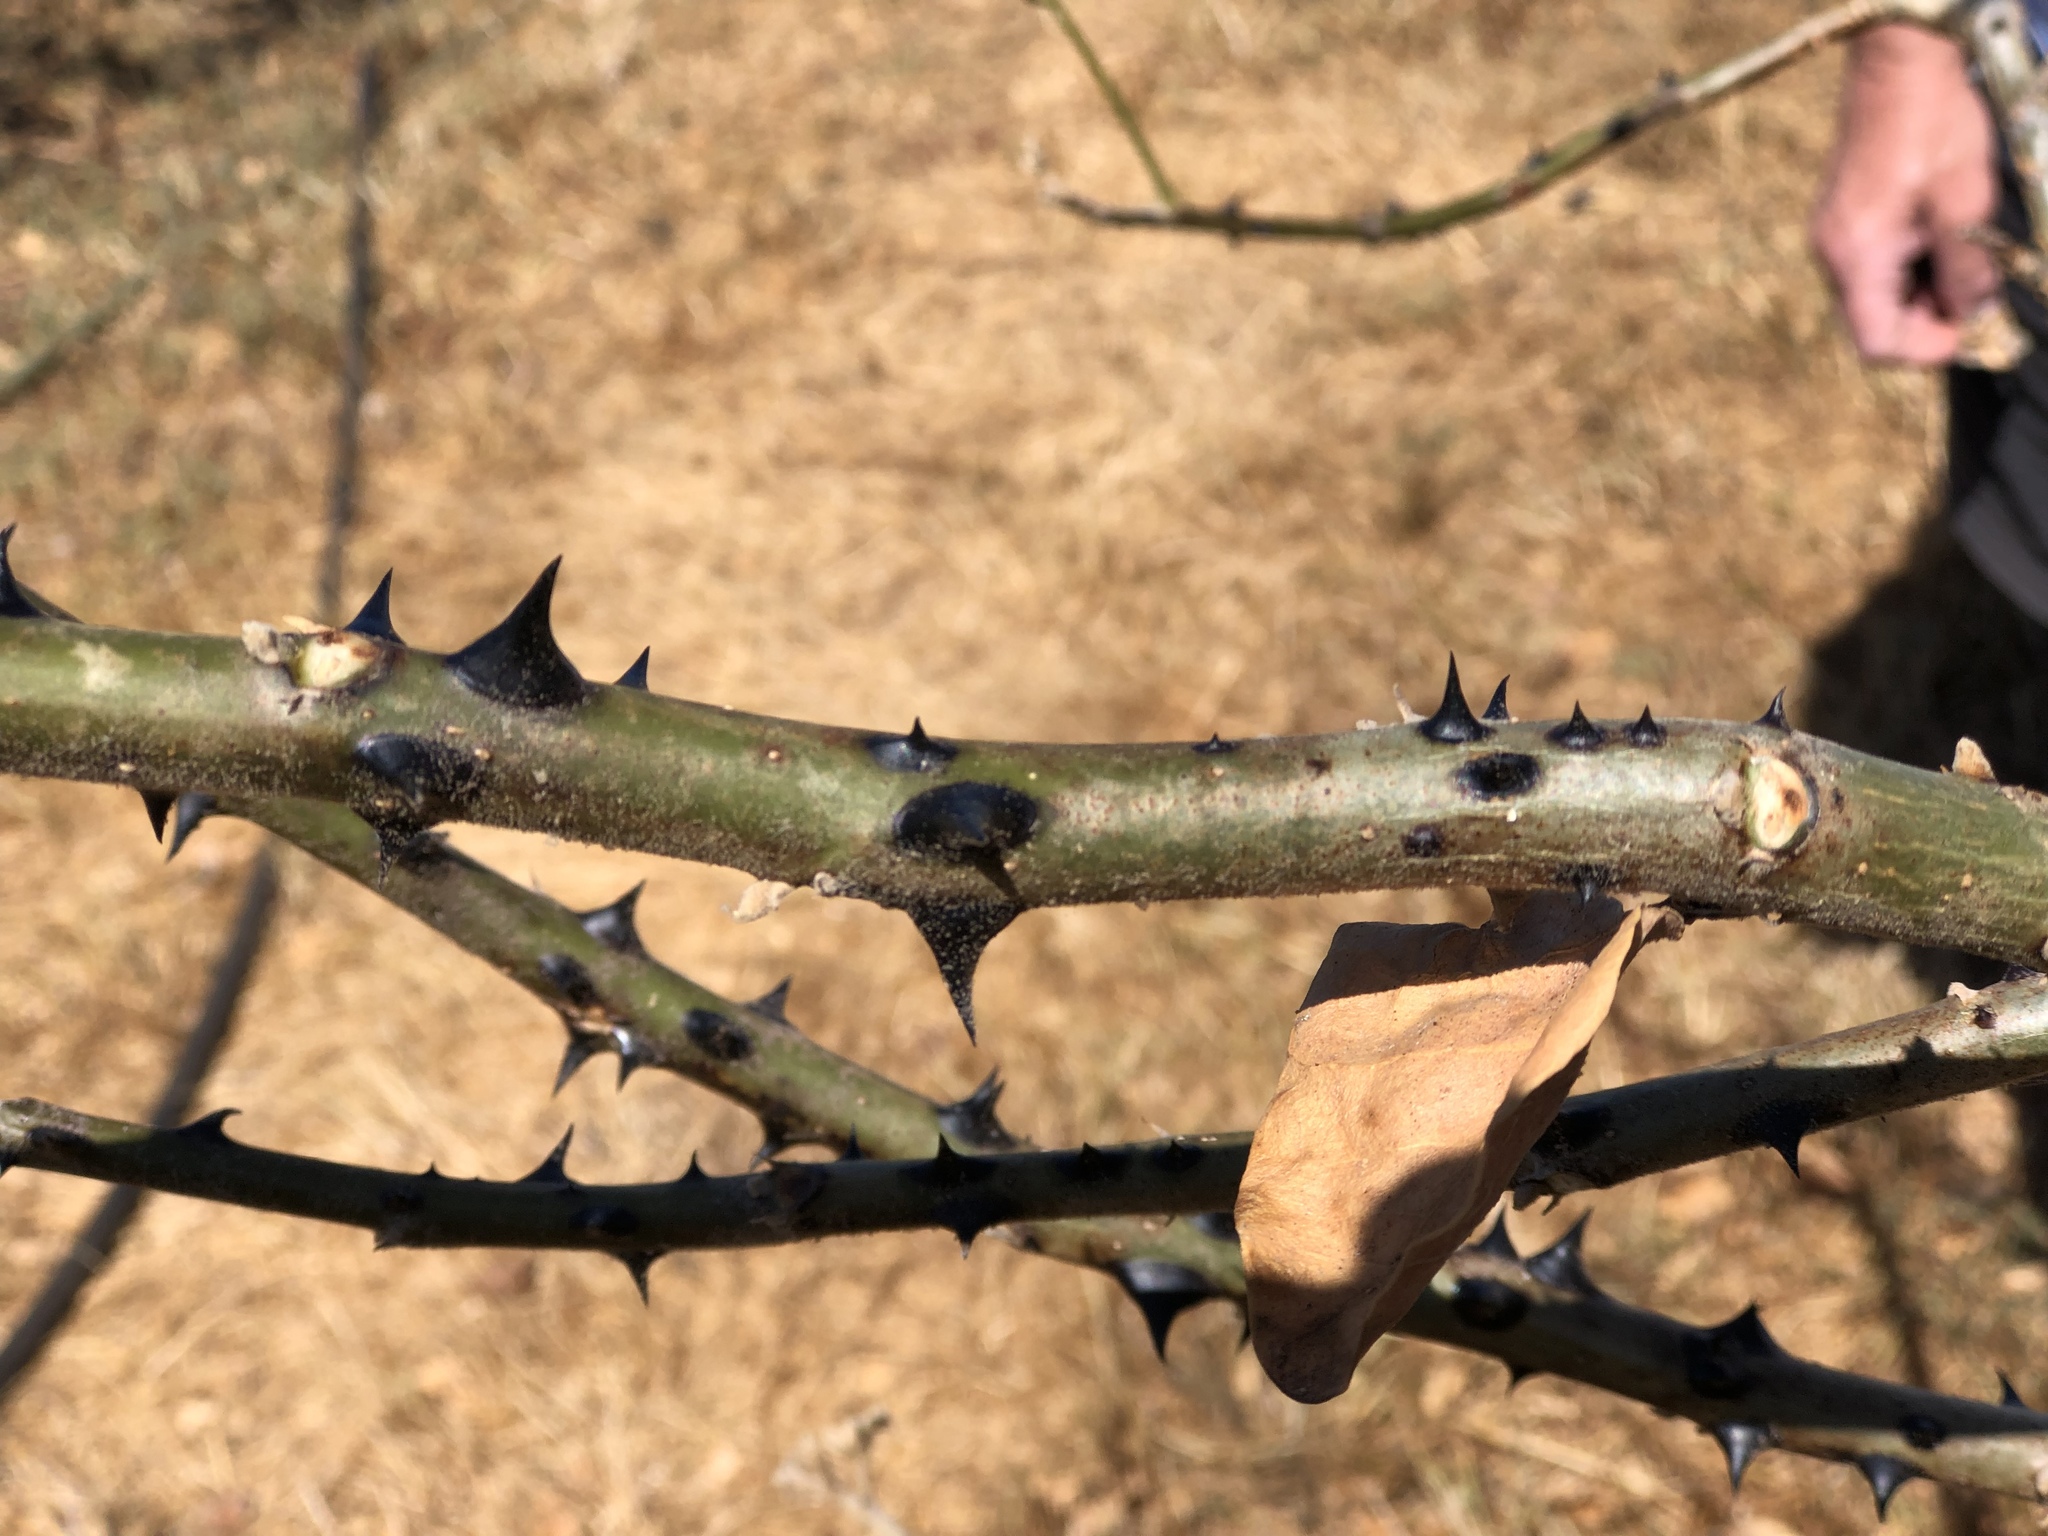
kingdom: Plantae
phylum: Tracheophyta
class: Magnoliopsida
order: Fabales
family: Fabaceae
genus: Erythrina
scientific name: Erythrina sandwicensis
